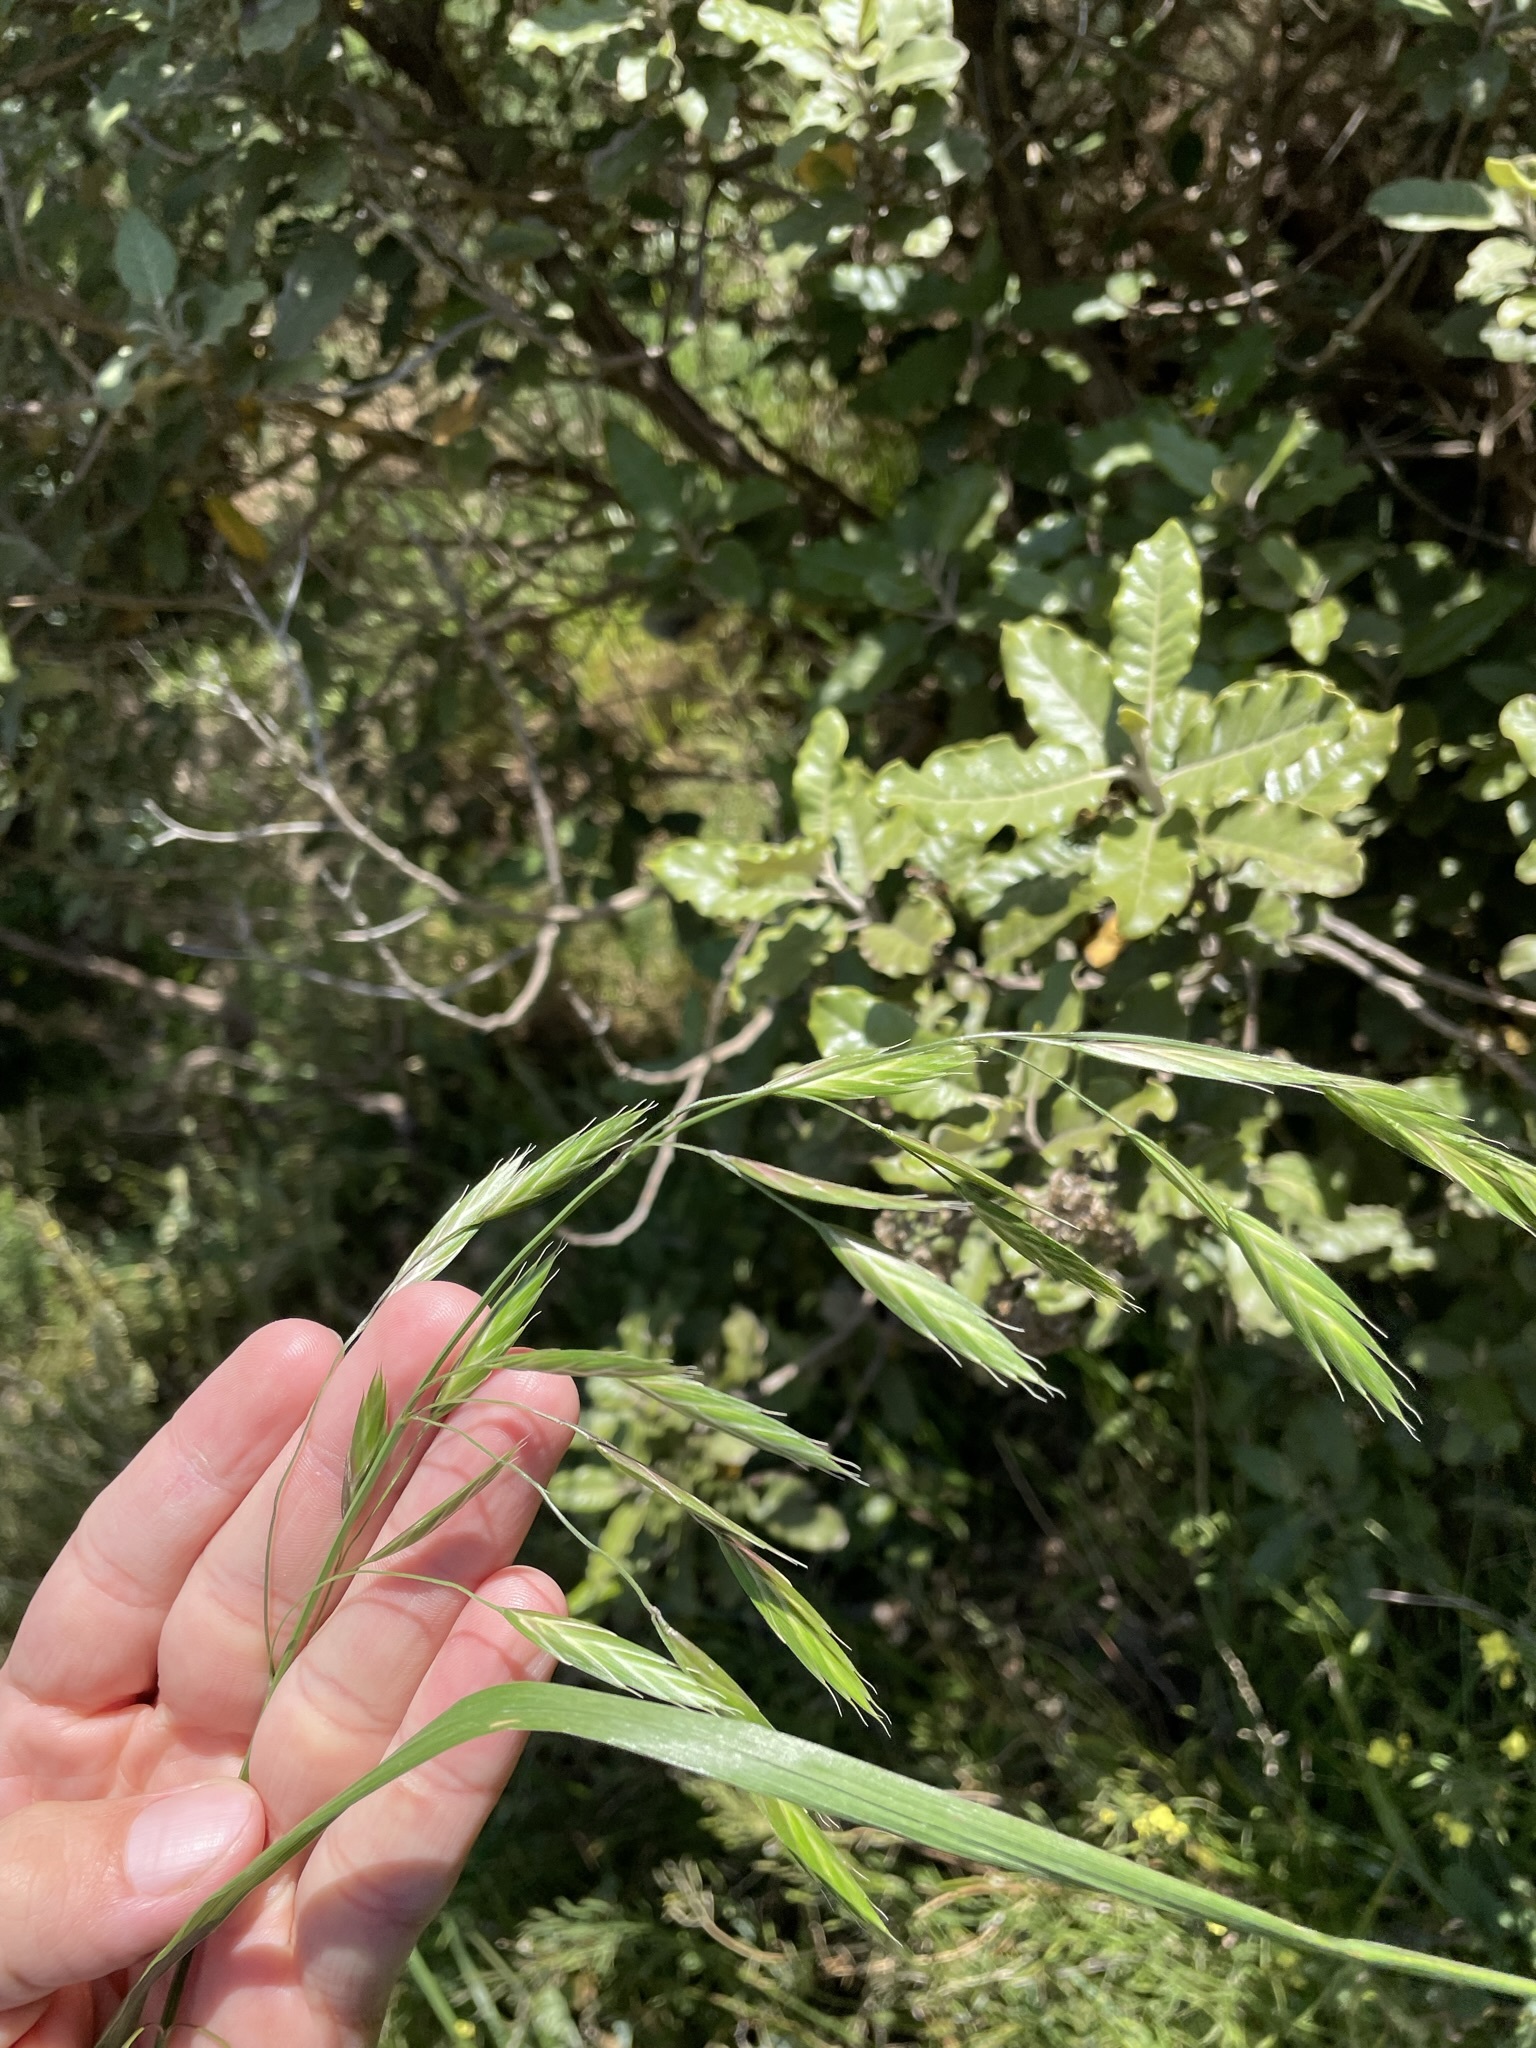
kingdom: Plantae
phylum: Tracheophyta
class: Liliopsida
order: Poales
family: Poaceae
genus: Bromus
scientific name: Bromus catharticus
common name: Rescuegrass
